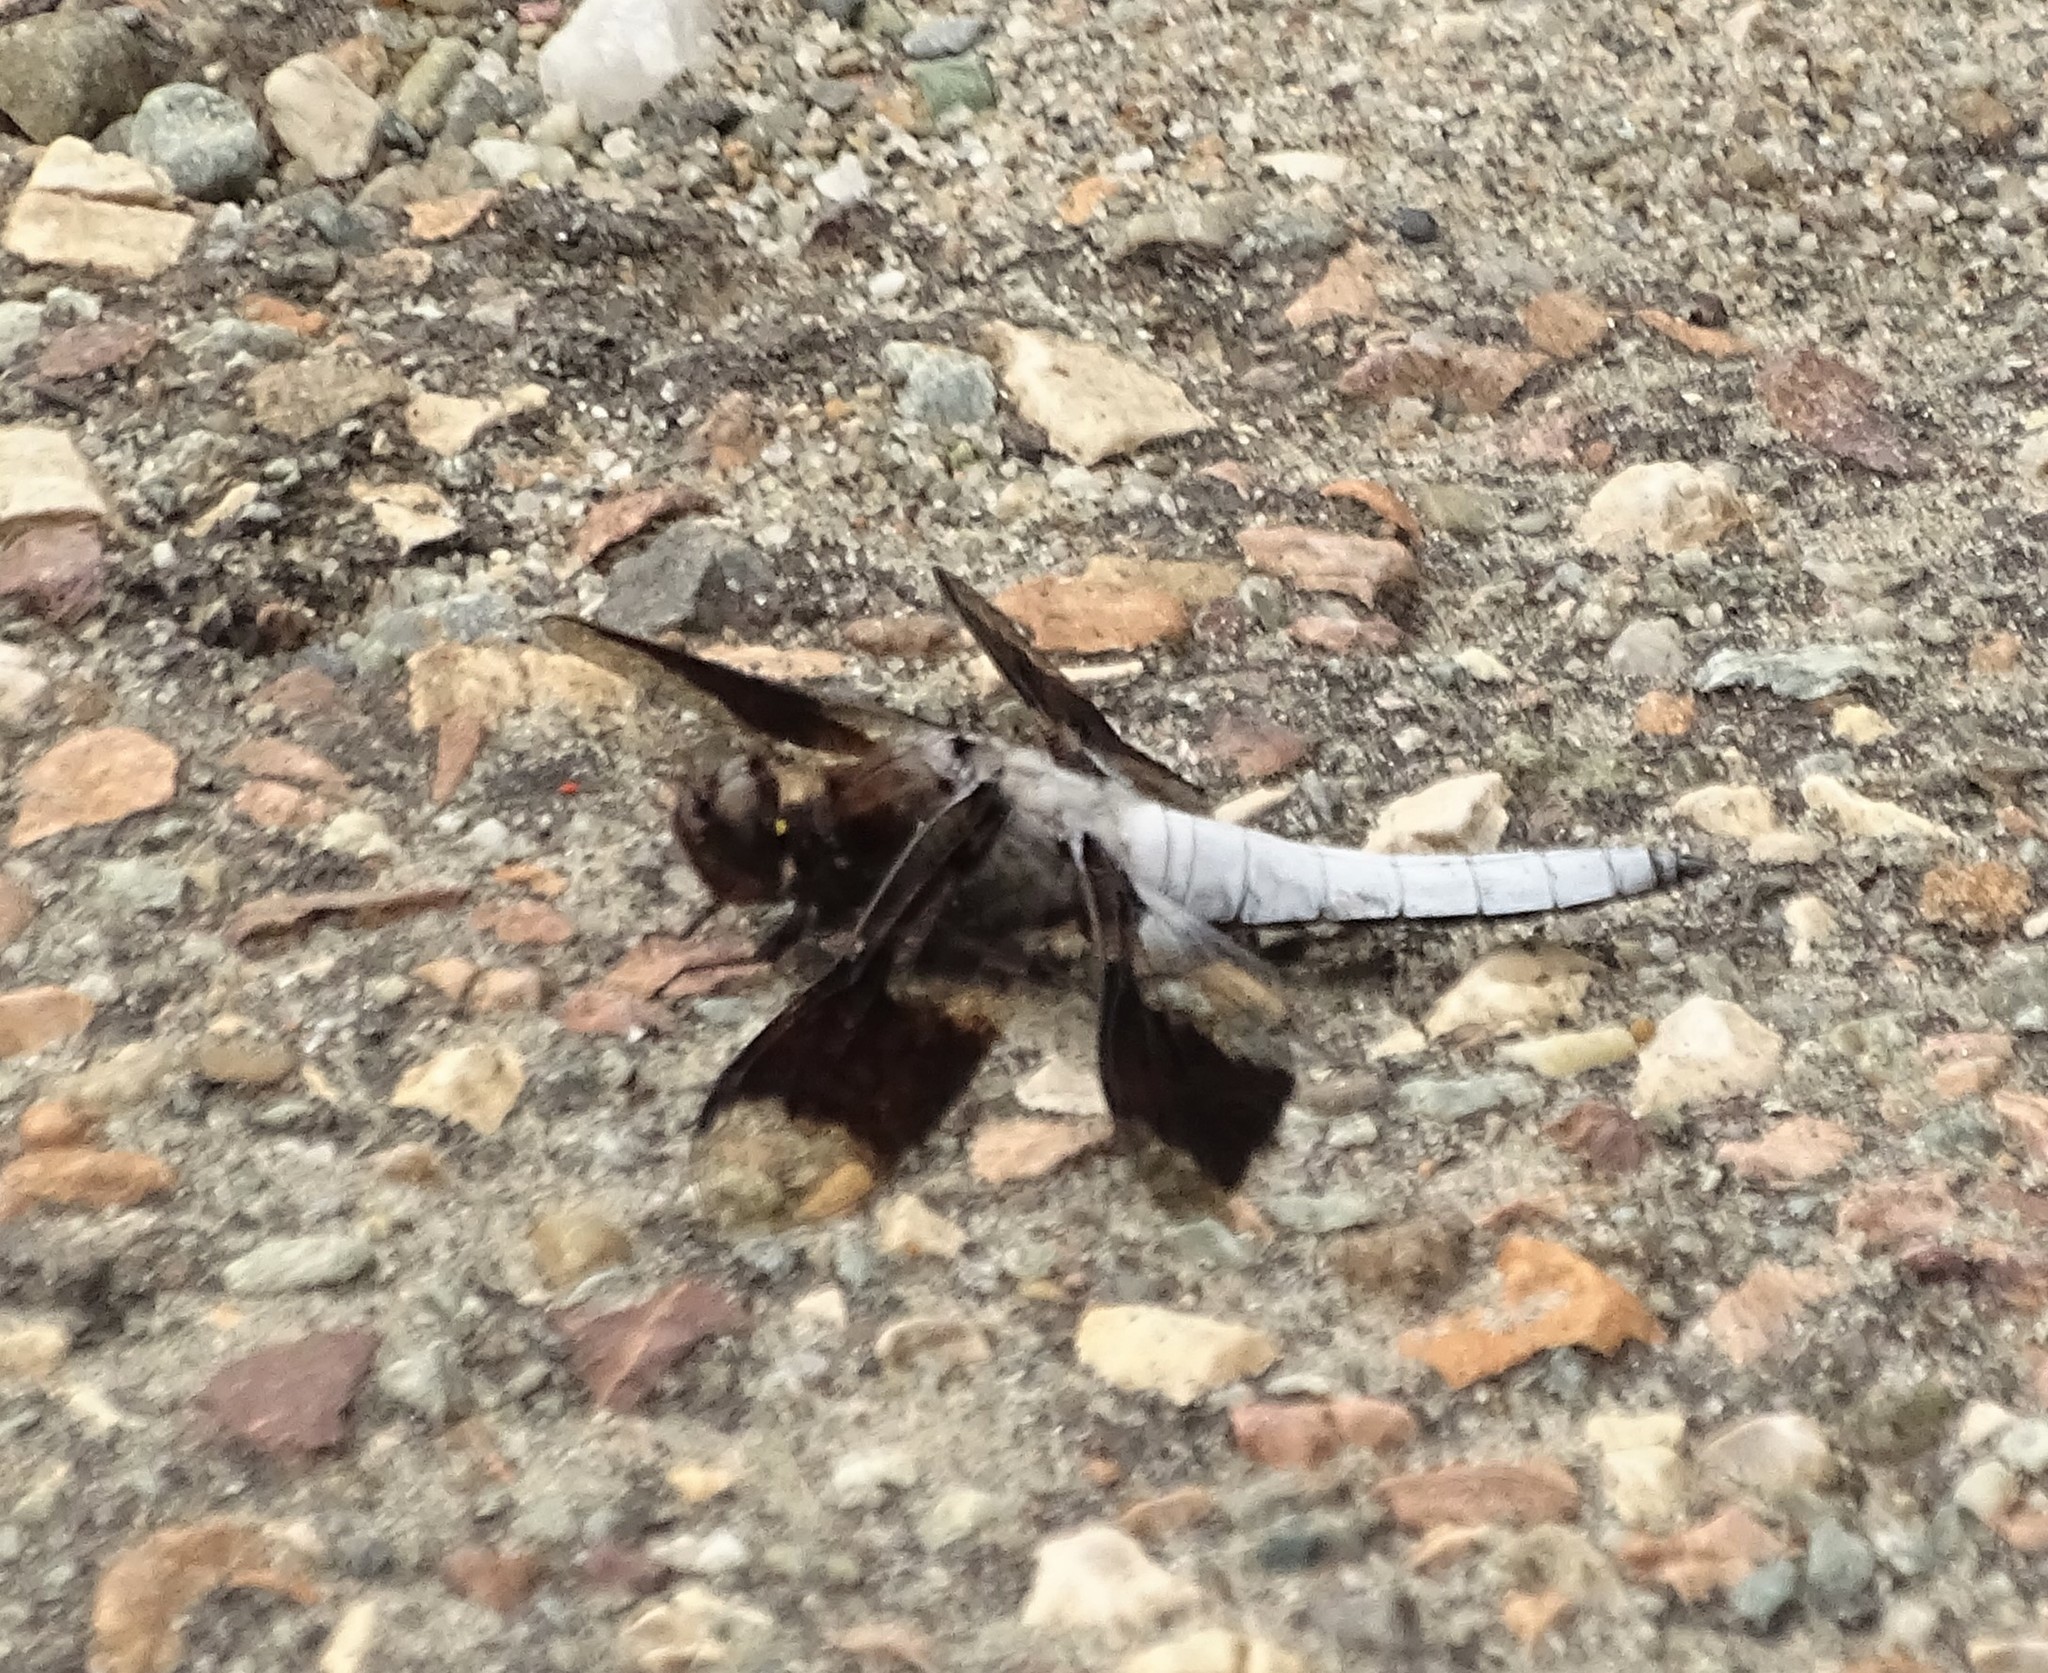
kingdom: Animalia
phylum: Arthropoda
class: Insecta
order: Odonata
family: Libellulidae
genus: Plathemis
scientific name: Plathemis lydia
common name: Common whitetail
